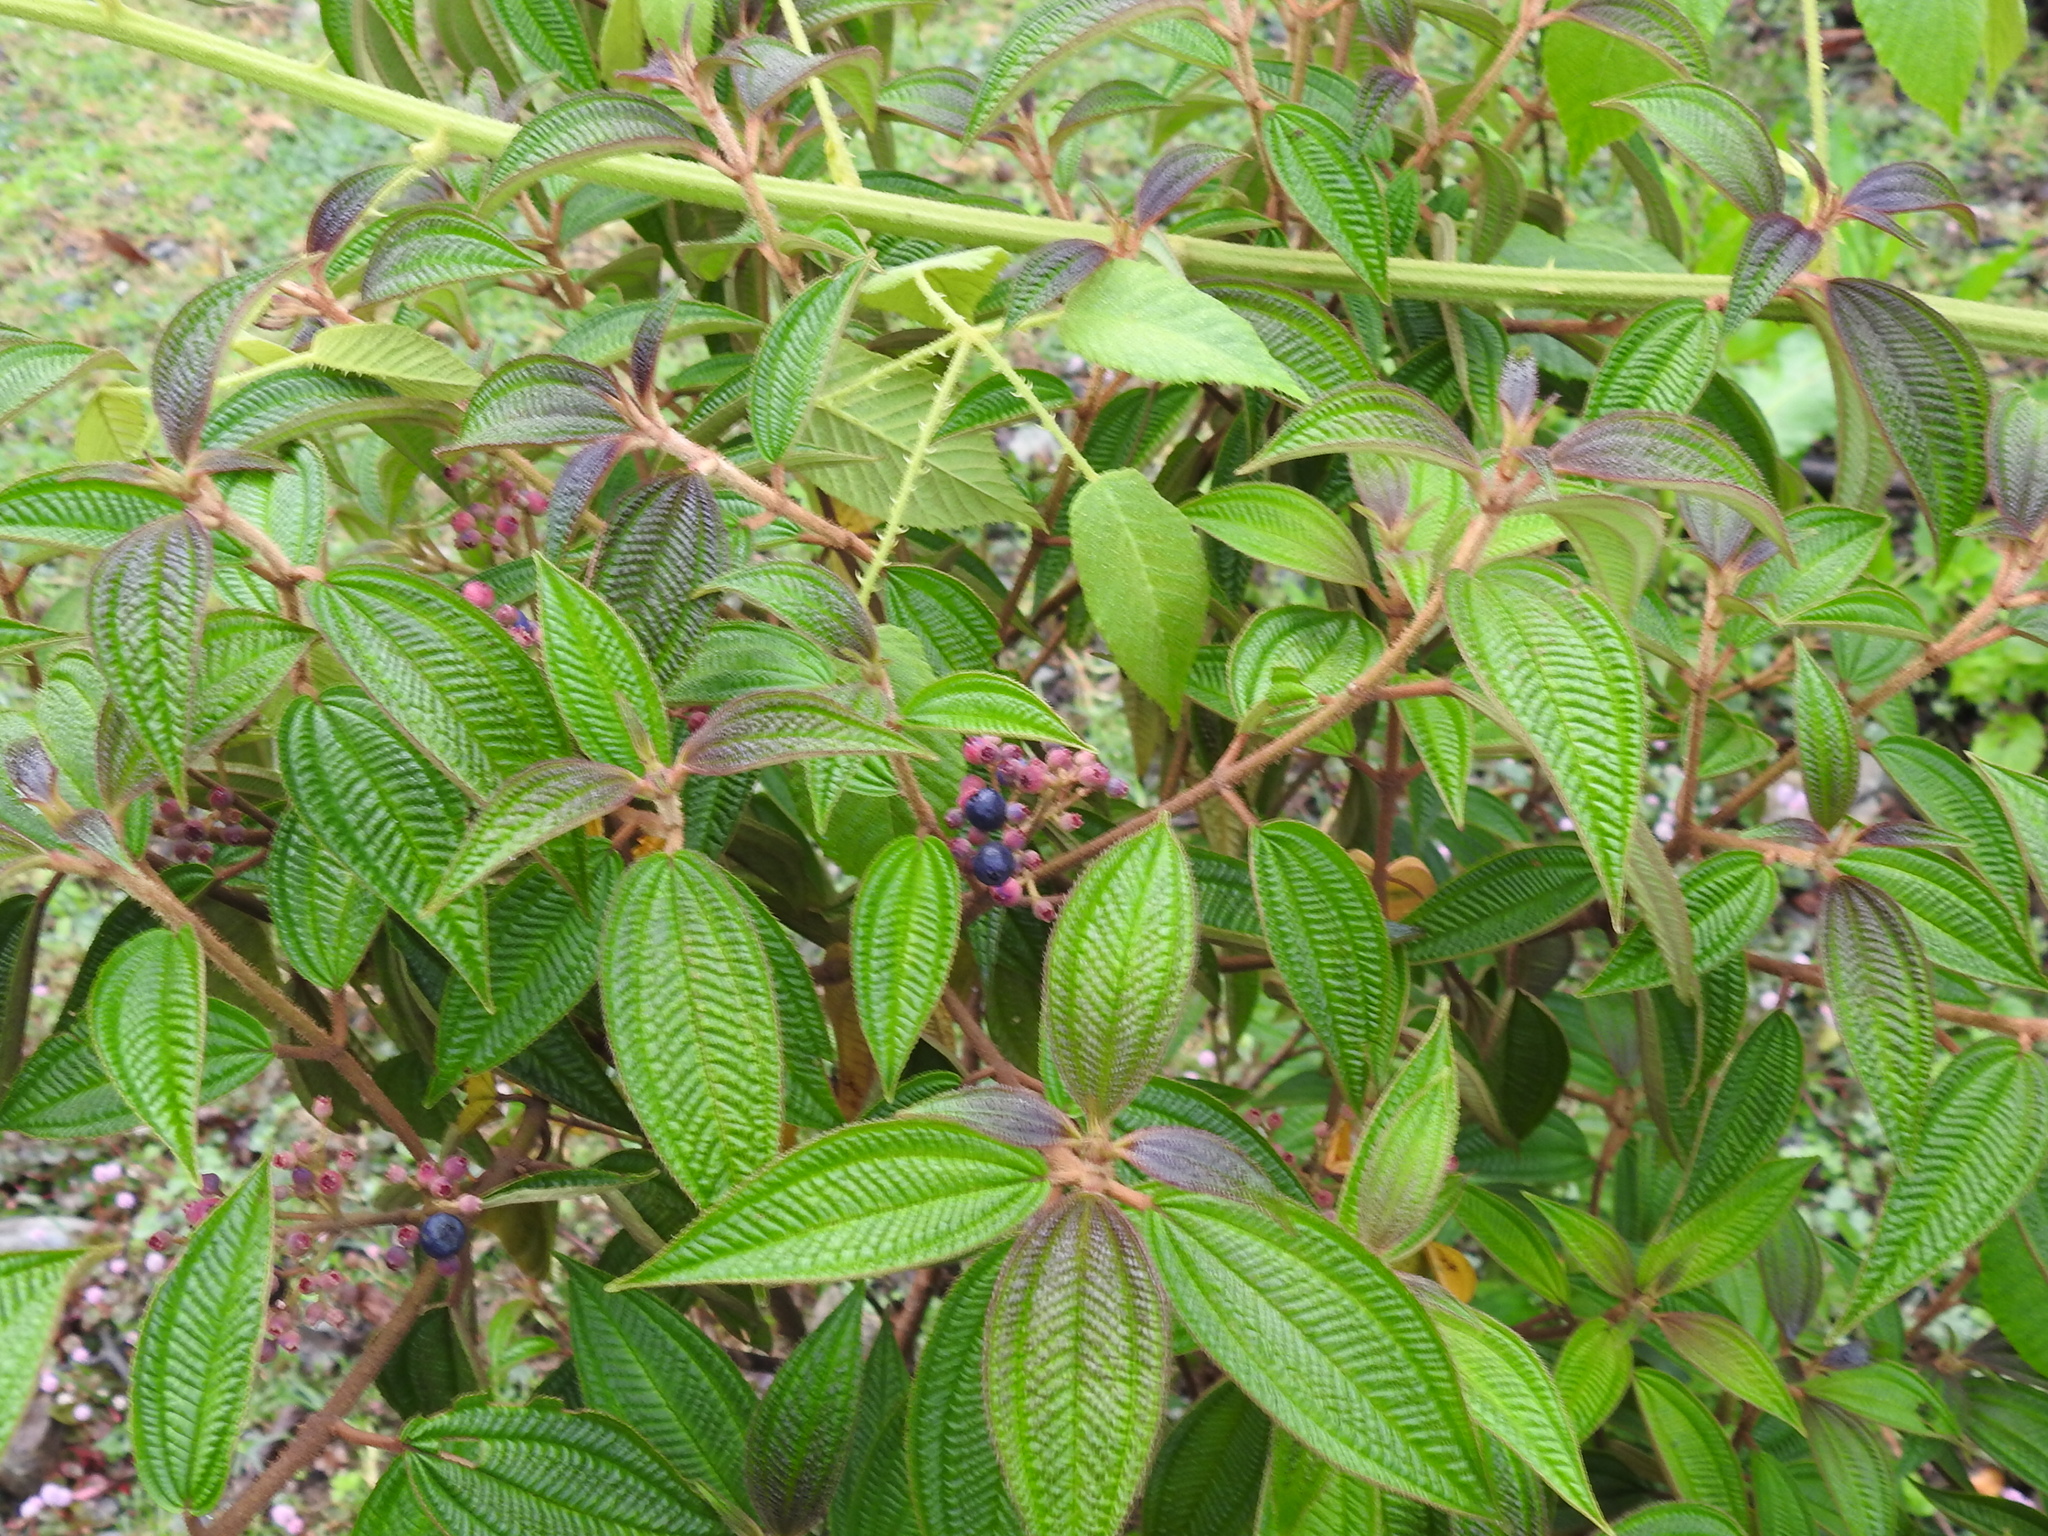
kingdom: Plantae
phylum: Tracheophyta
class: Magnoliopsida
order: Myrtales
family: Melastomataceae
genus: Miconia
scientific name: Miconia subseriata
